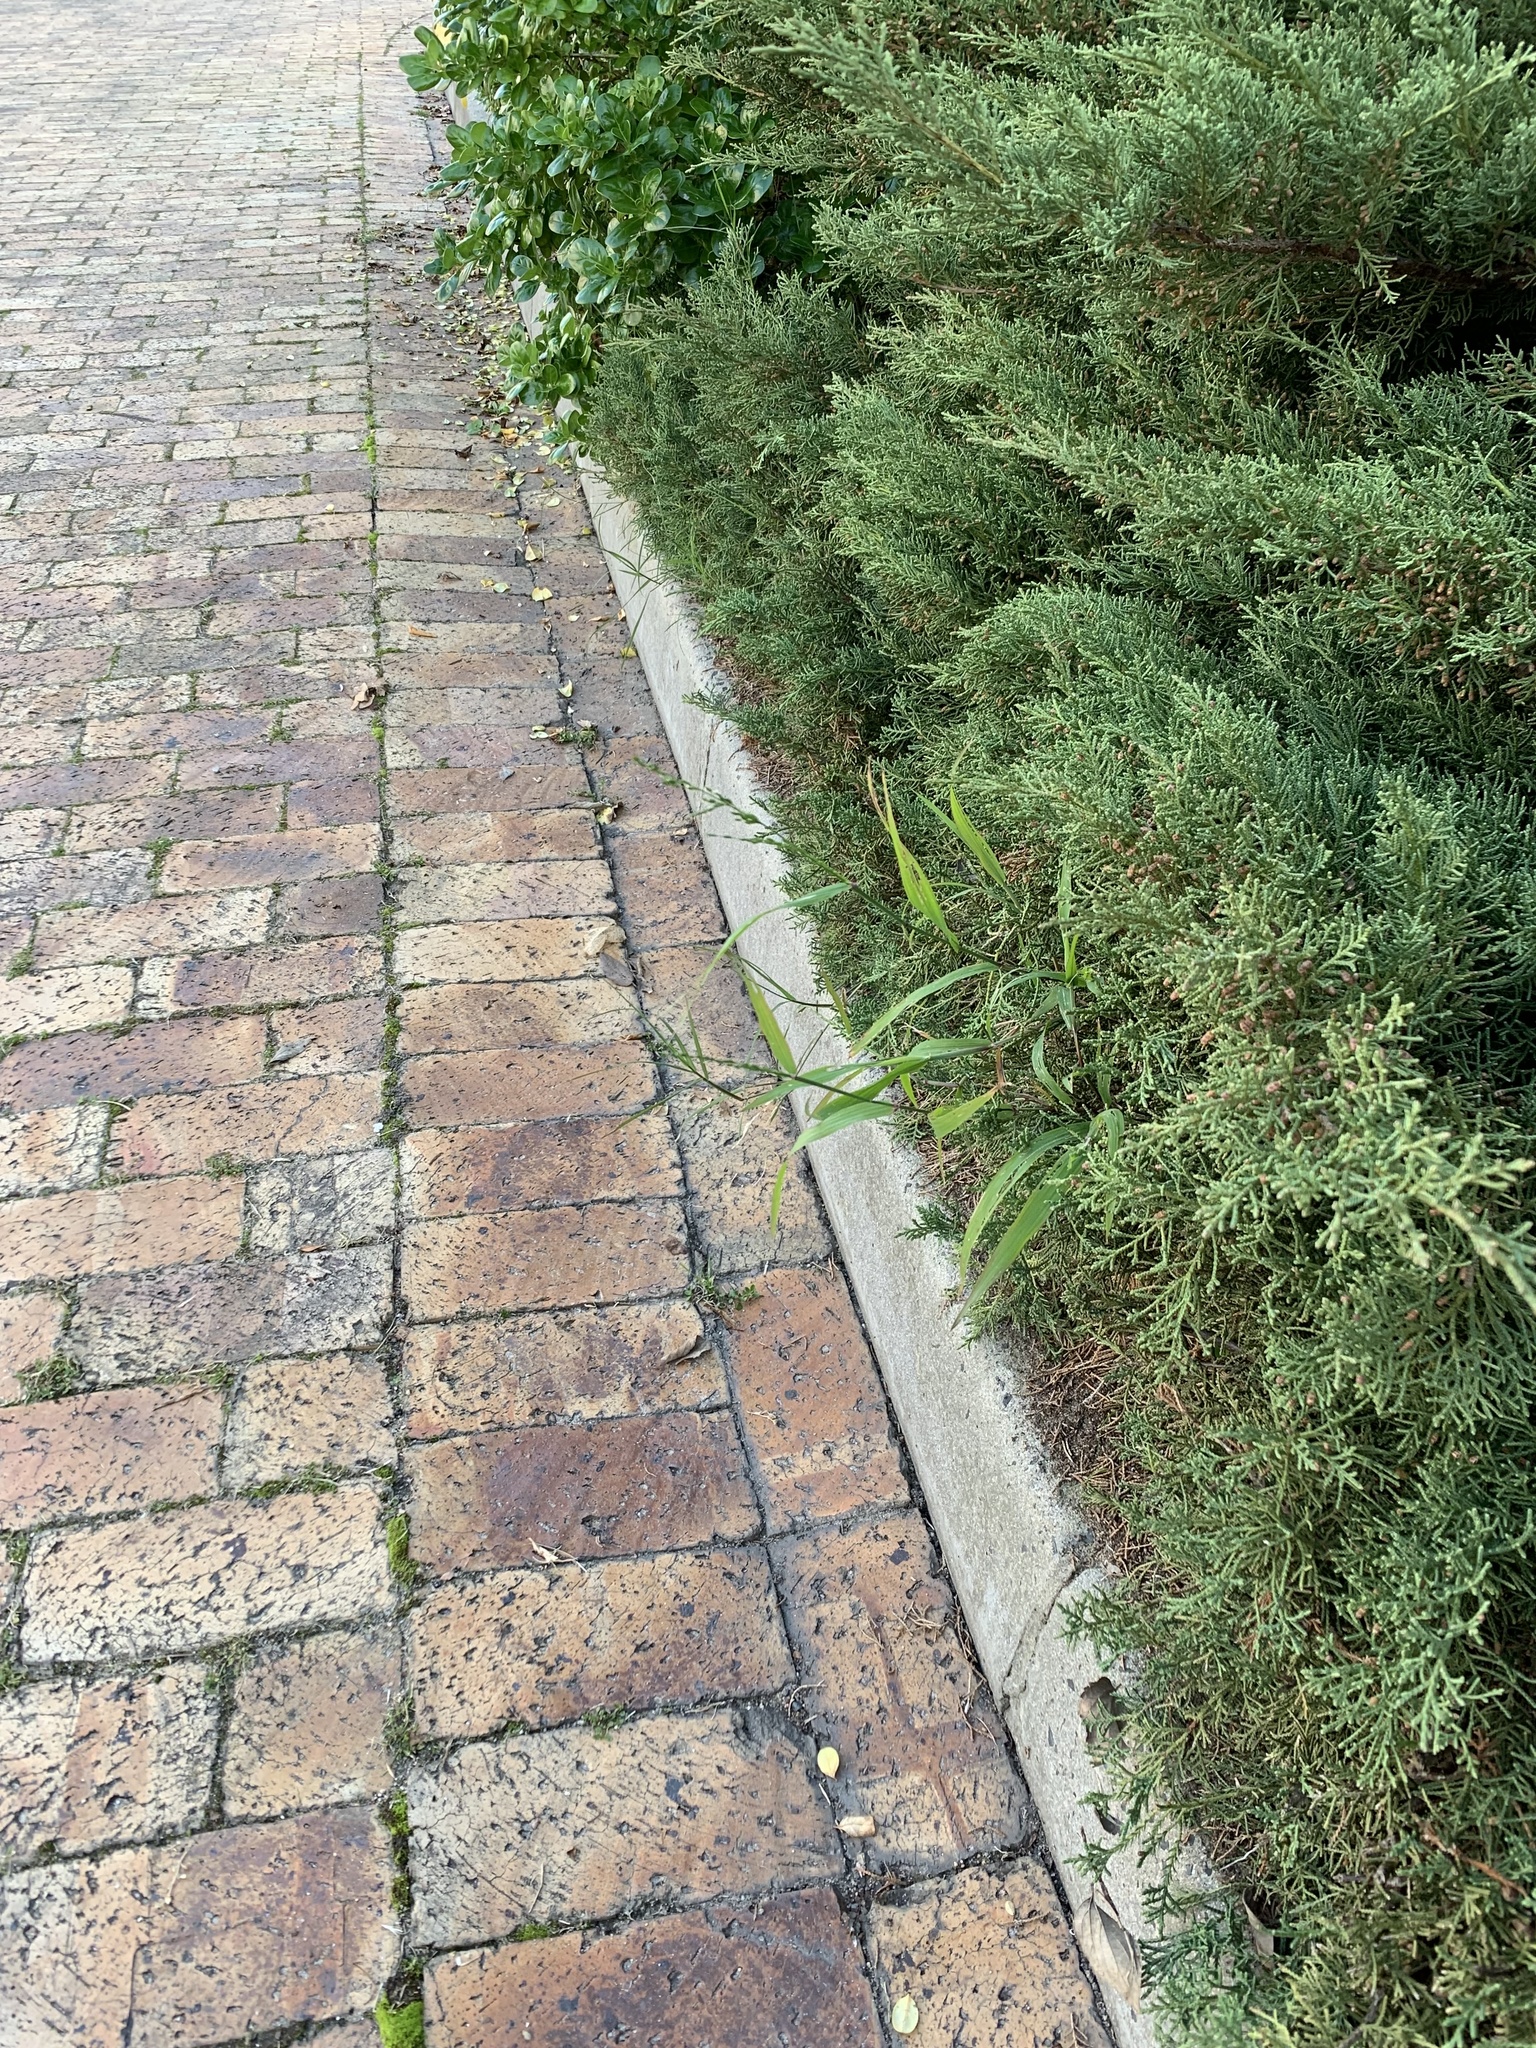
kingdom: Plantae
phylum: Tracheophyta
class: Liliopsida
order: Poales
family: Poaceae
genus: Ehrharta
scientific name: Ehrharta erecta
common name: Panic veldtgrass
